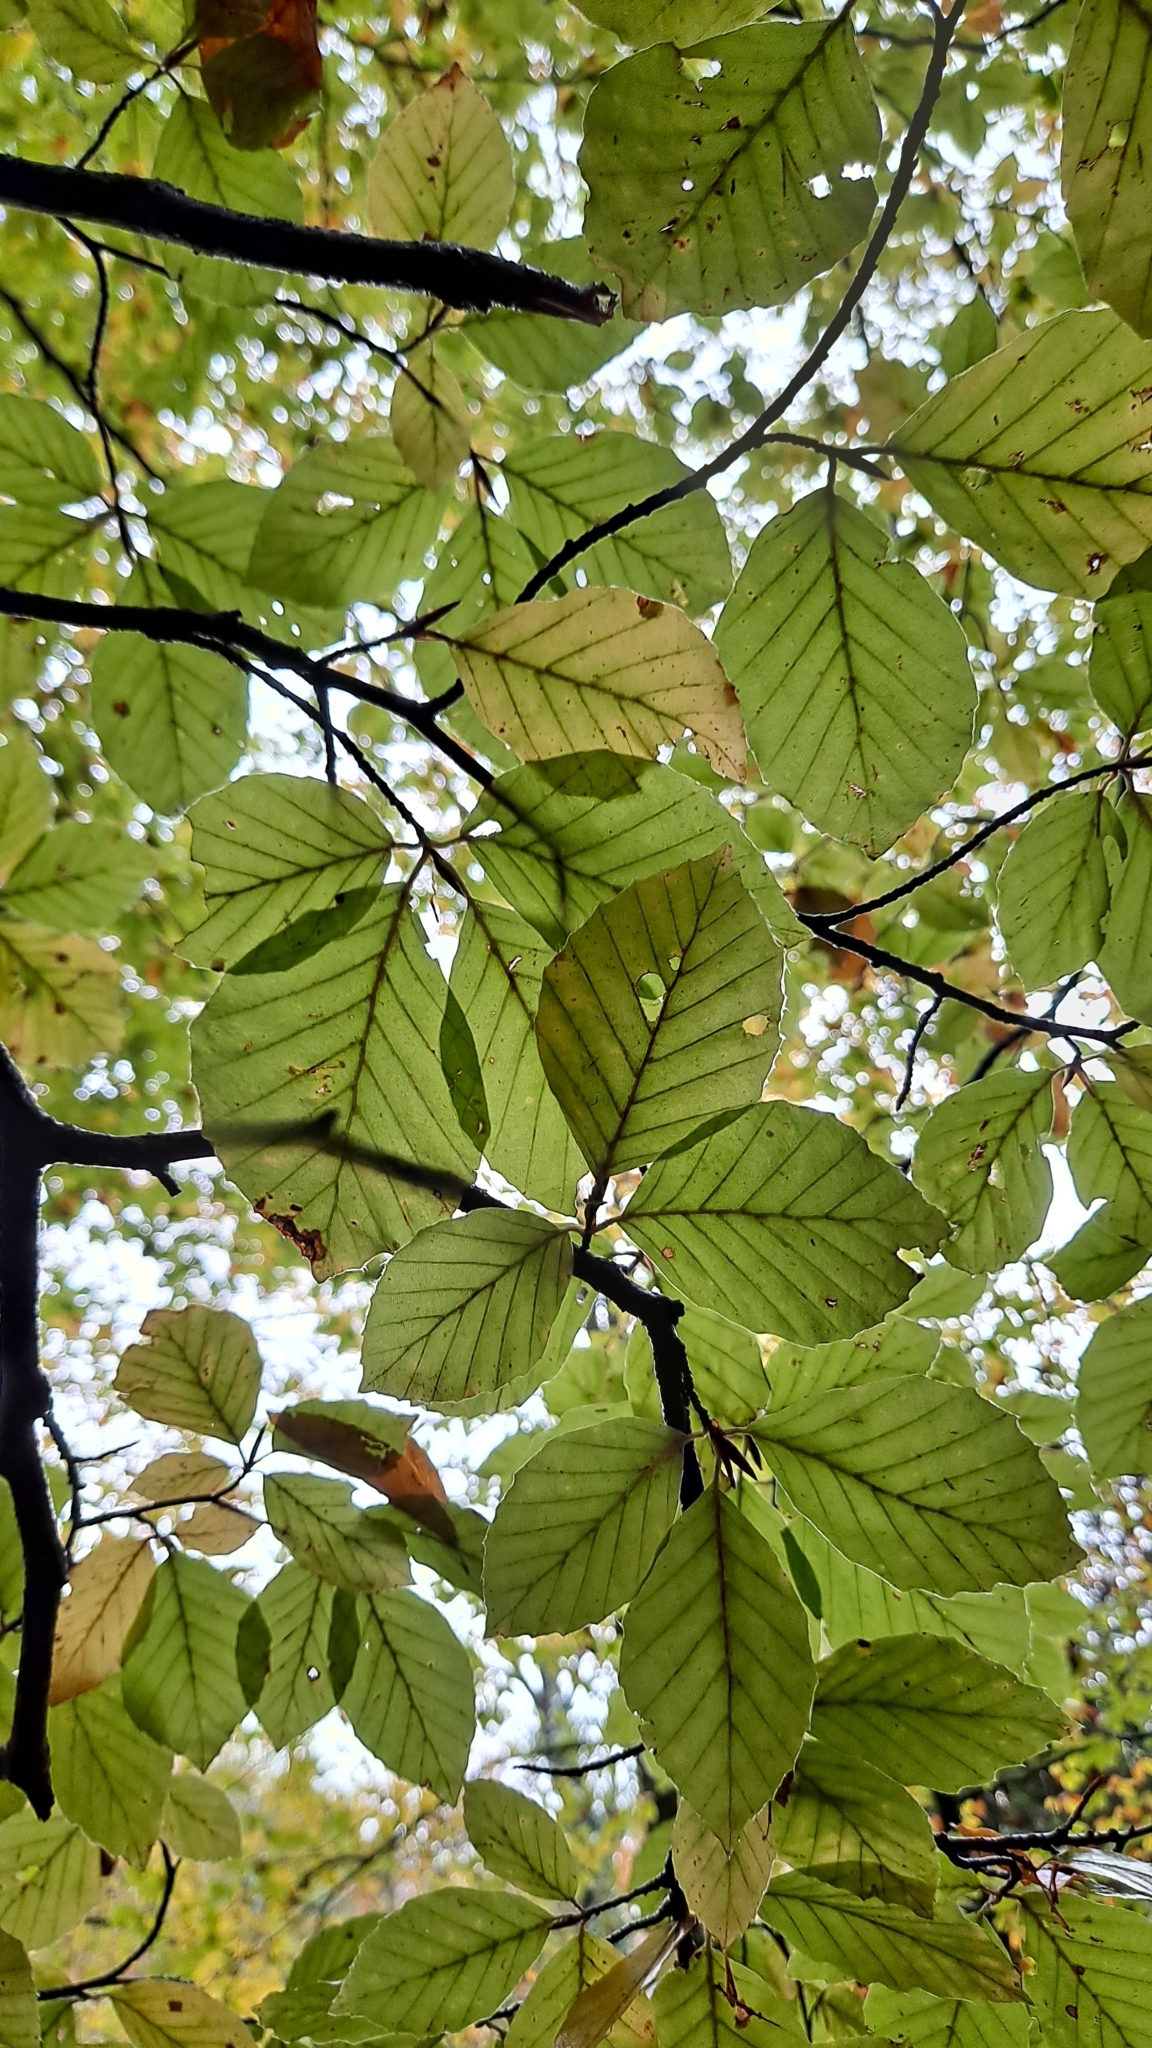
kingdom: Plantae
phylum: Tracheophyta
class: Magnoliopsida
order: Fagales
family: Fagaceae
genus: Fagus
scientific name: Fagus sylvatica
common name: Beech
